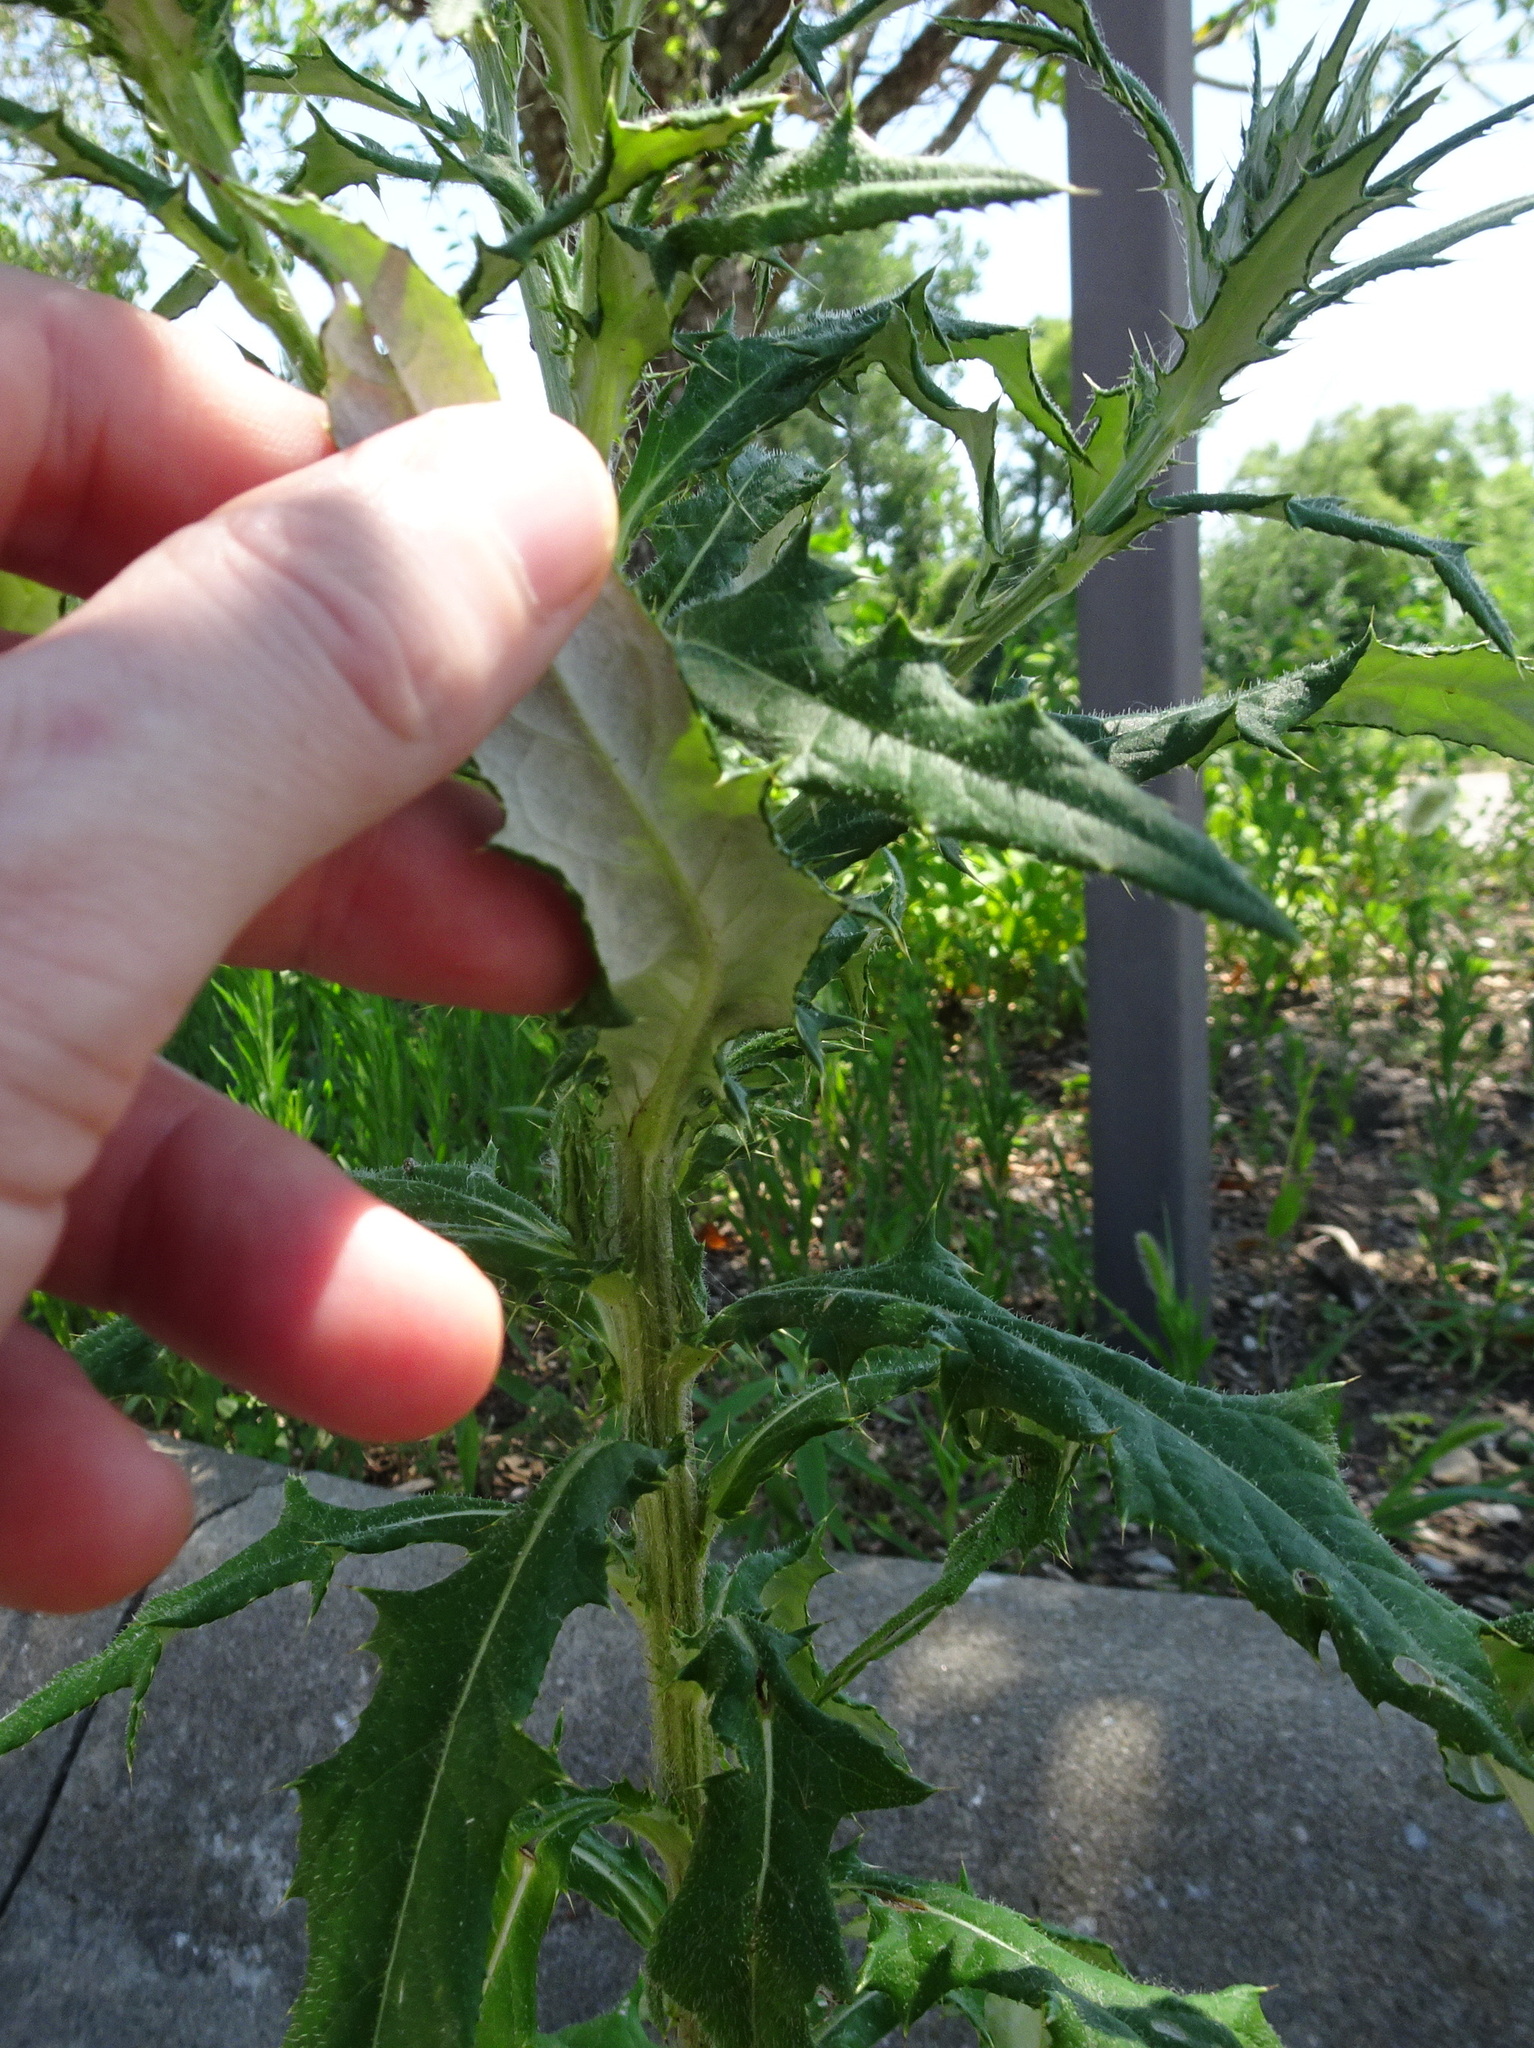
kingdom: Plantae
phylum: Tracheophyta
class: Magnoliopsida
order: Asterales
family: Asteraceae
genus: Cirsium
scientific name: Cirsium altissimum
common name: Roadside thistle
